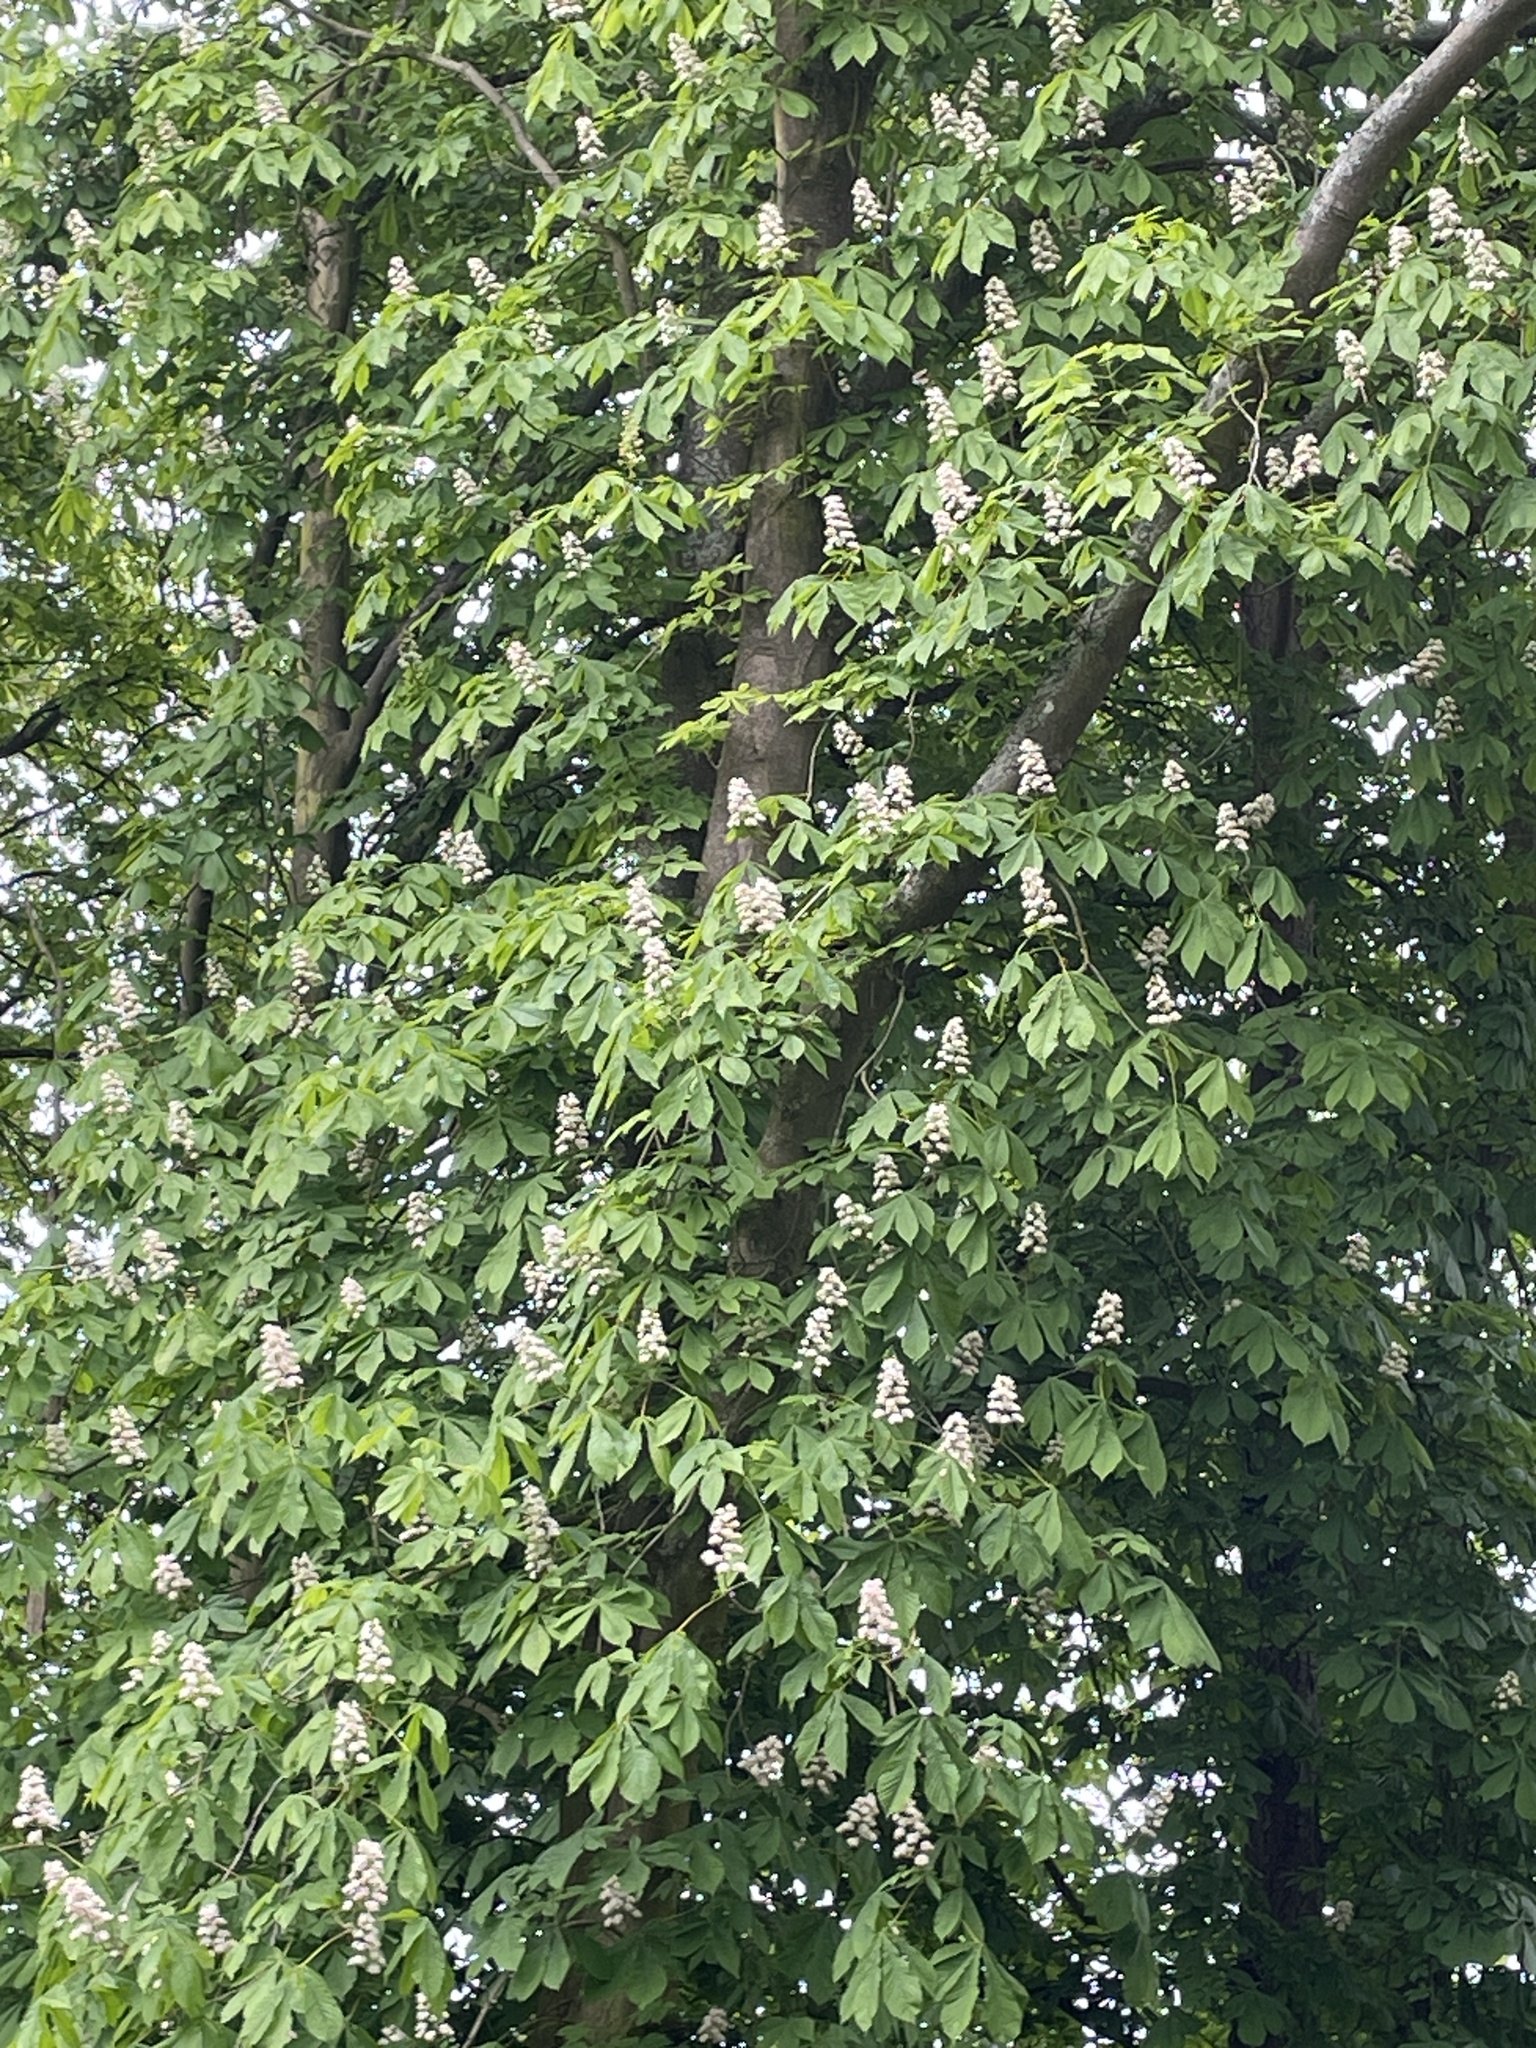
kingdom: Plantae
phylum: Tracheophyta
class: Magnoliopsida
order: Sapindales
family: Sapindaceae
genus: Aesculus
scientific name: Aesculus hippocastanum
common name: Horse-chestnut
